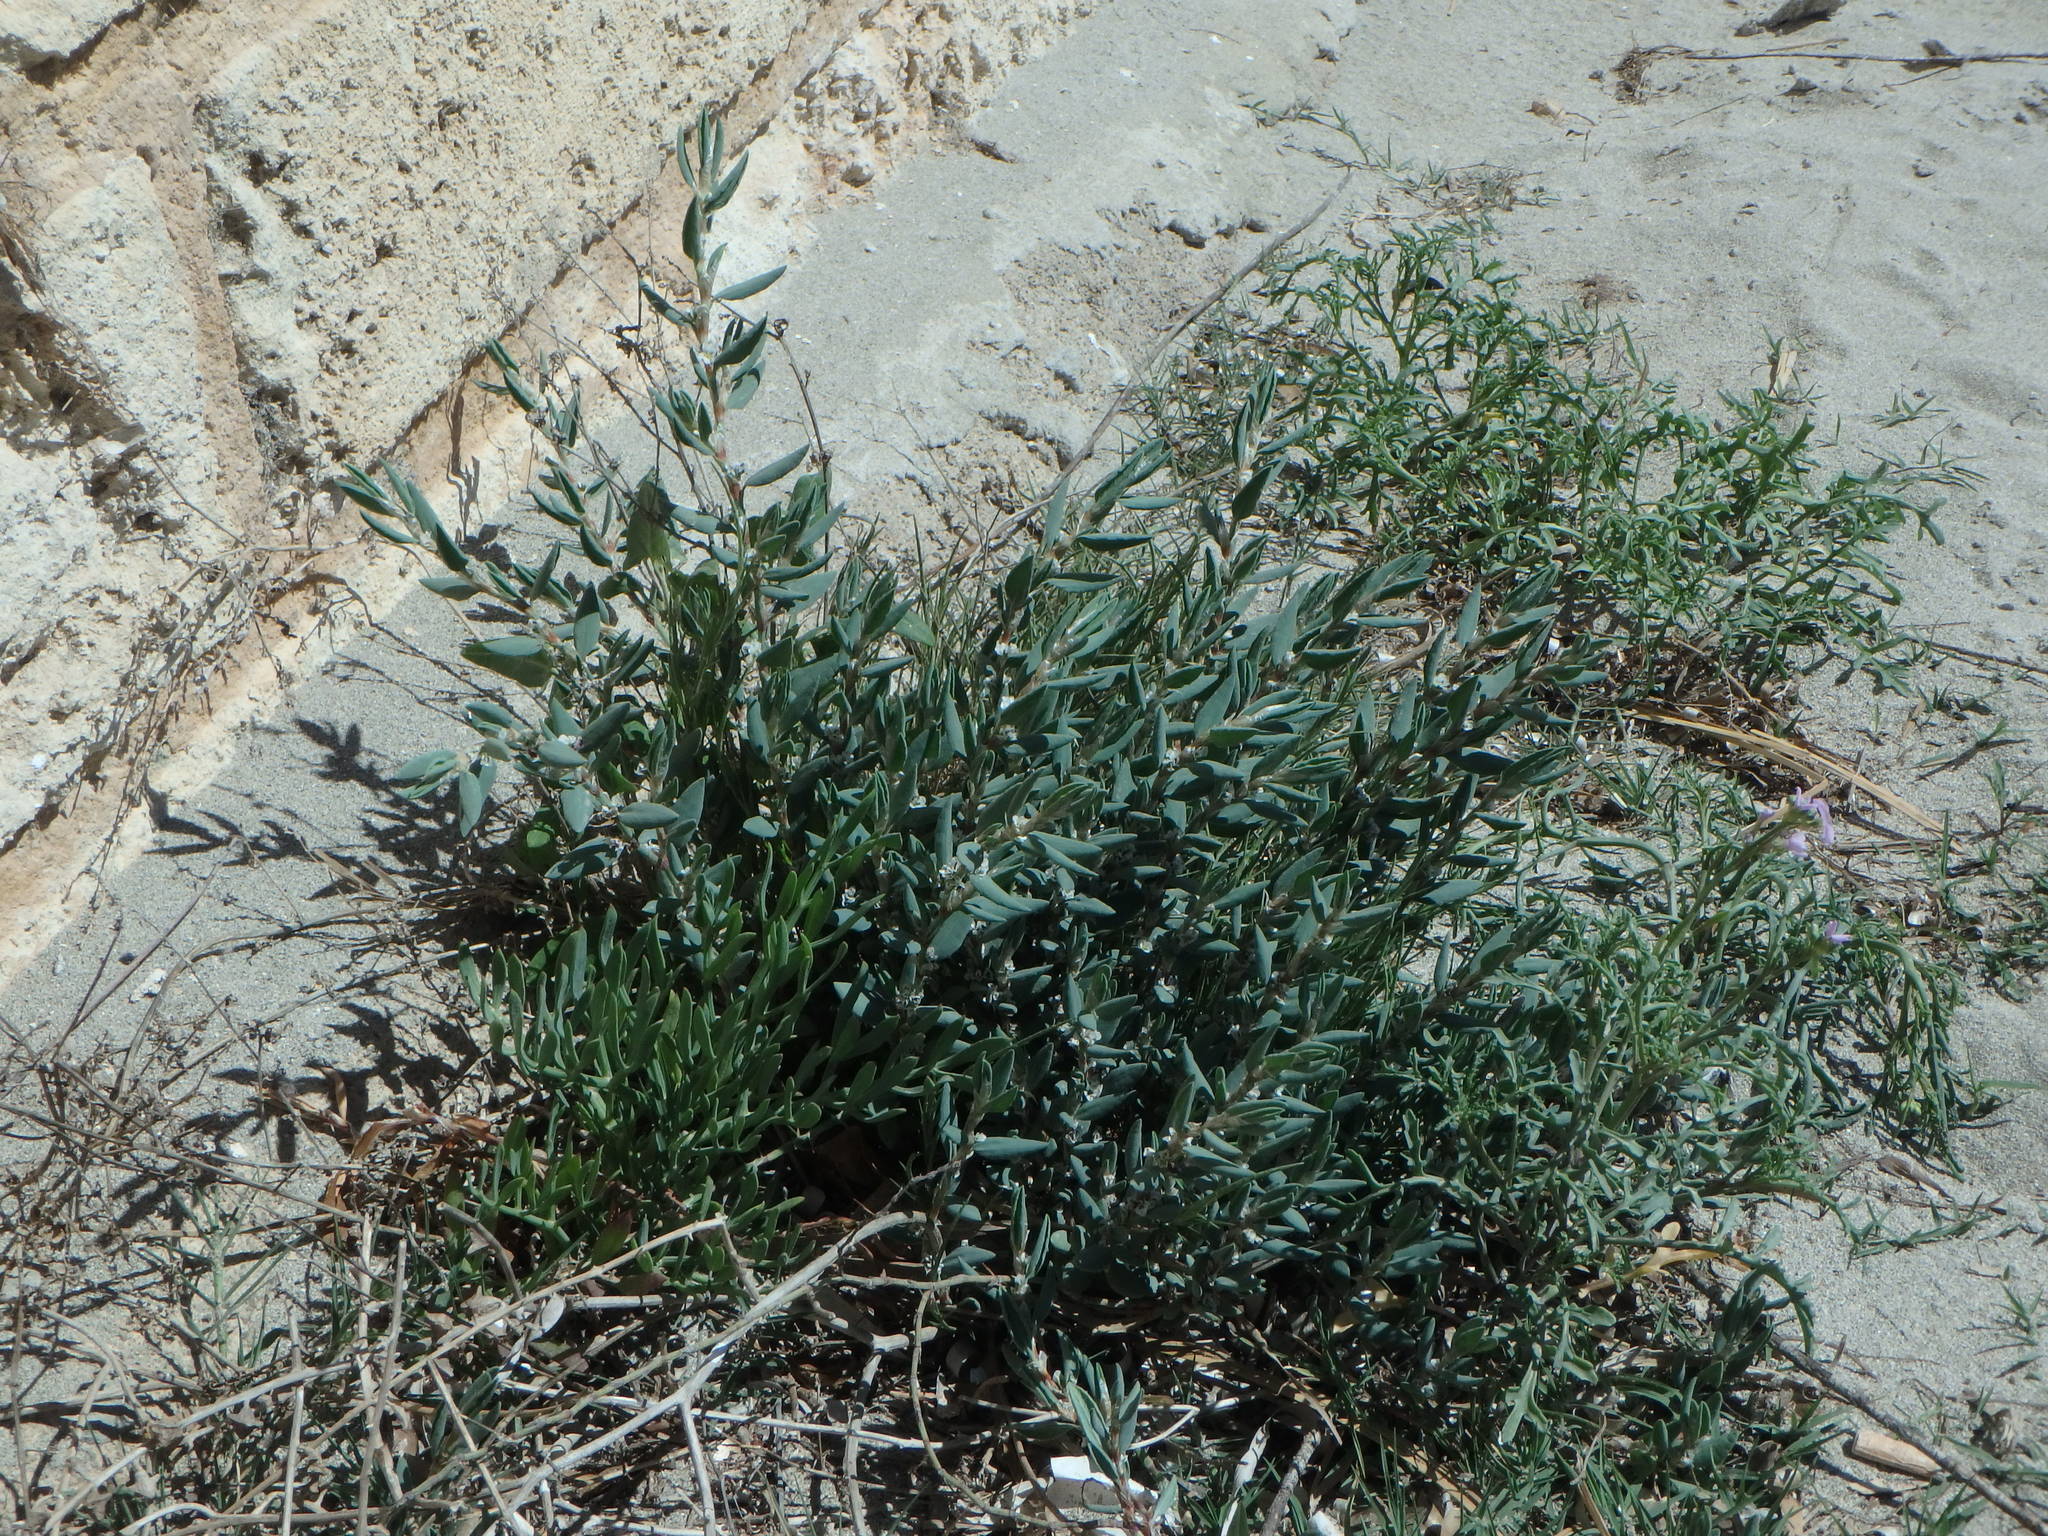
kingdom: Plantae
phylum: Tracheophyta
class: Magnoliopsida
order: Caryophyllales
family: Polygonaceae
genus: Polygonum
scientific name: Polygonum maritimum
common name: Sea knotgrass
